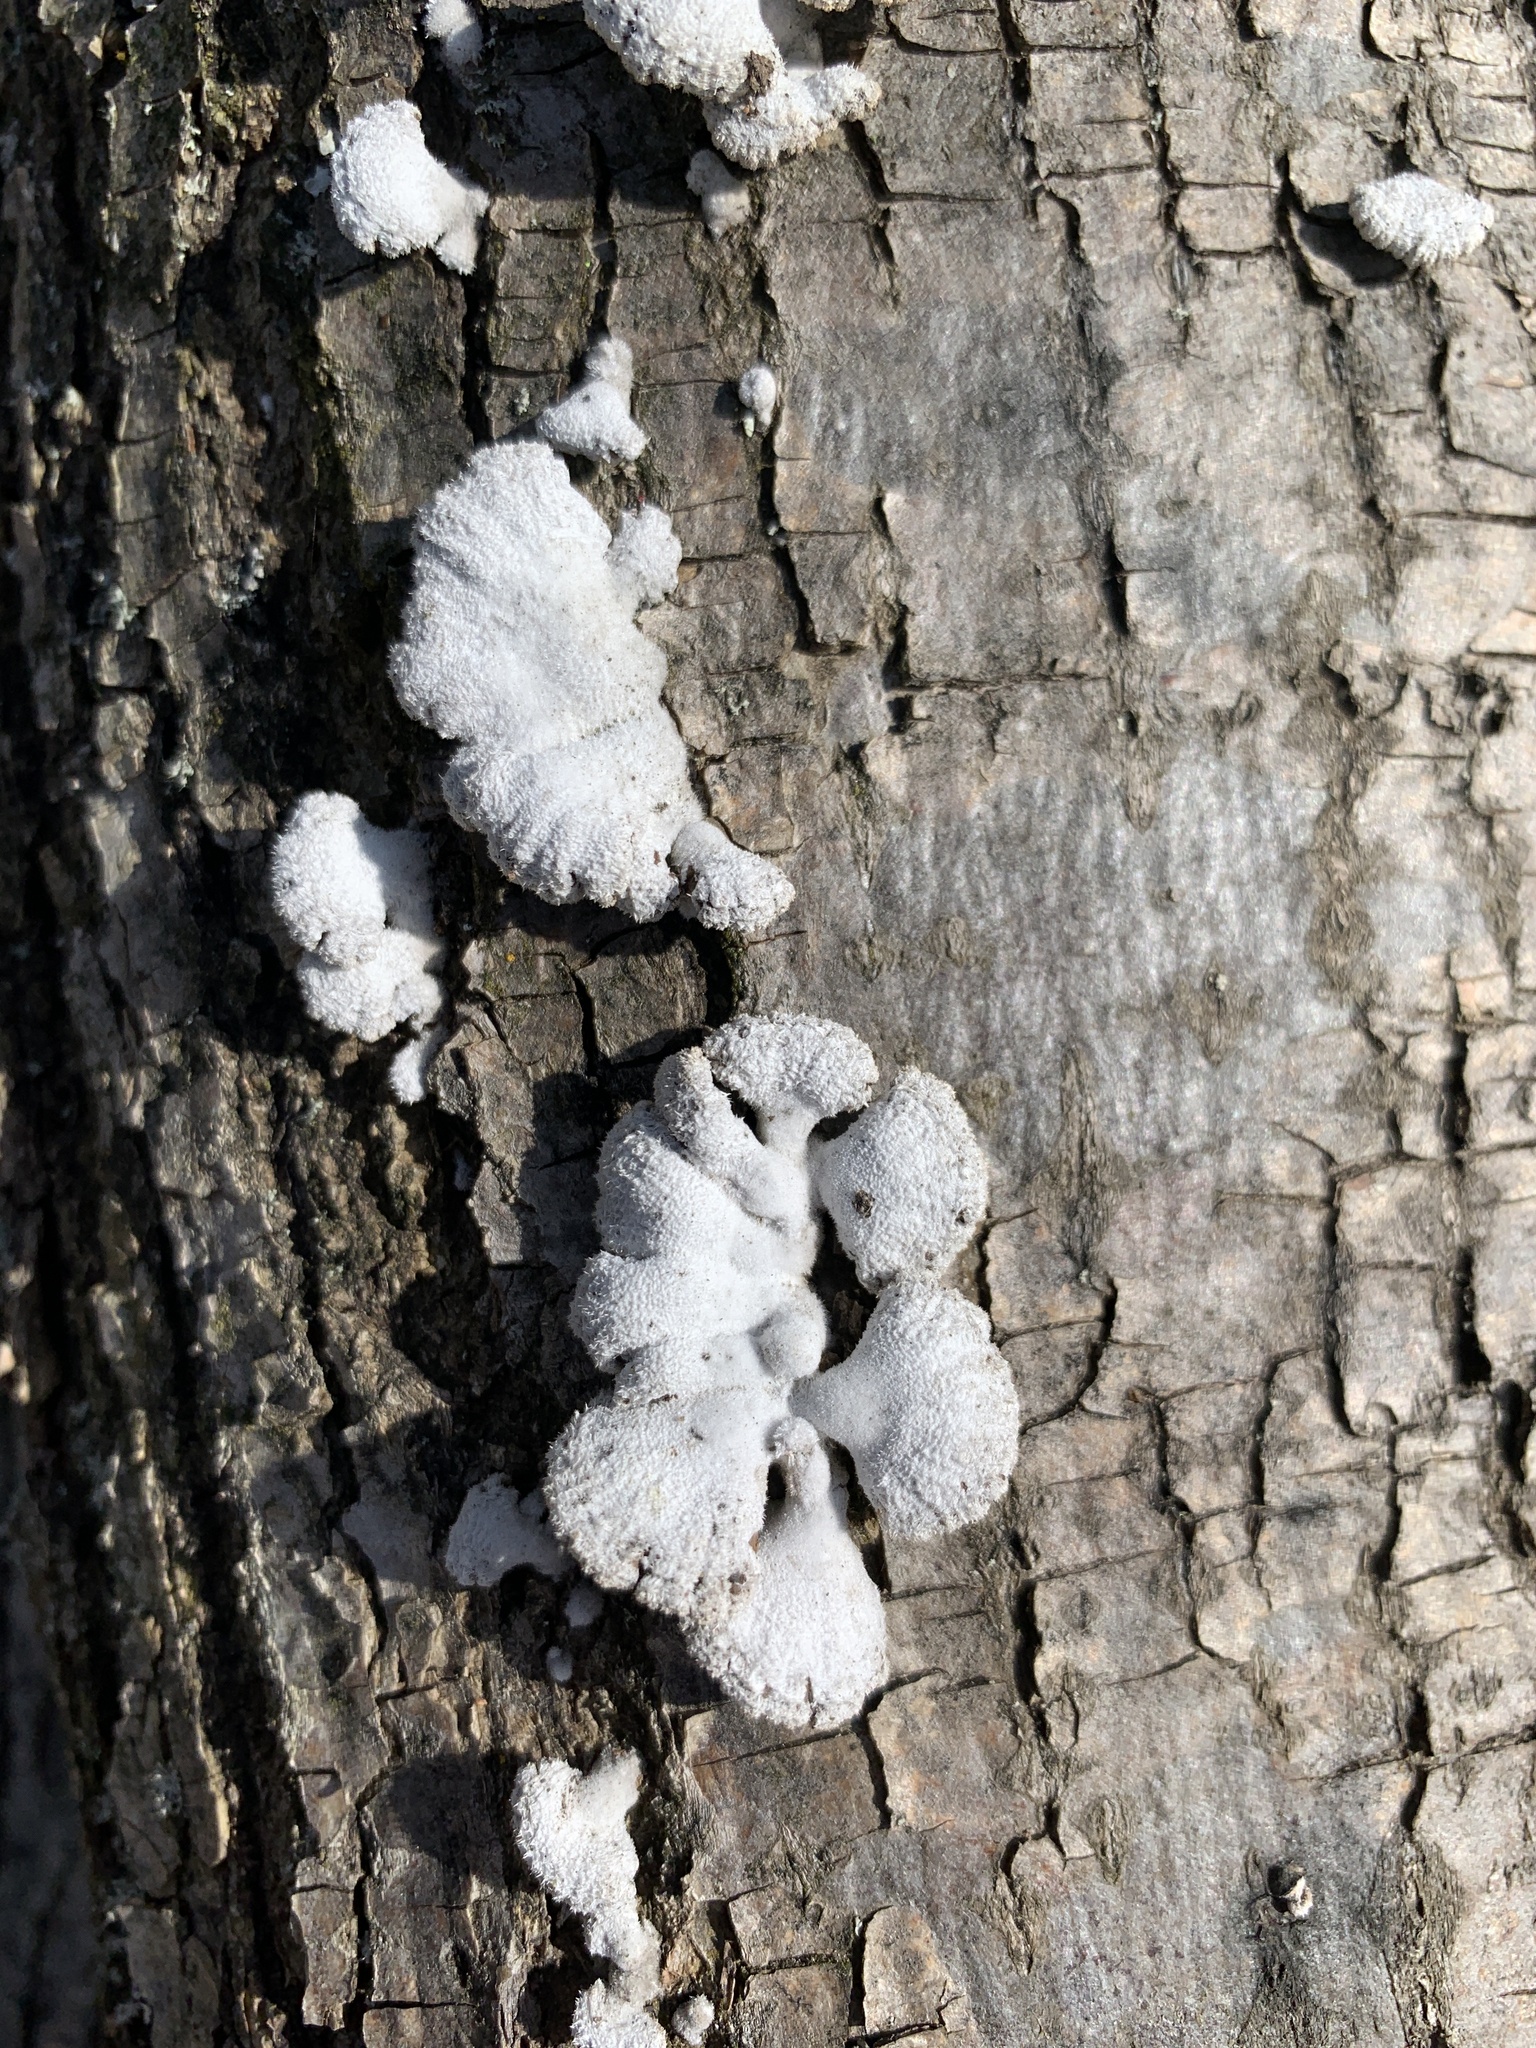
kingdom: Fungi
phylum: Basidiomycota
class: Agaricomycetes
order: Agaricales
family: Schizophyllaceae
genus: Schizophyllum
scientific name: Schizophyllum commune
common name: Common porecrust
